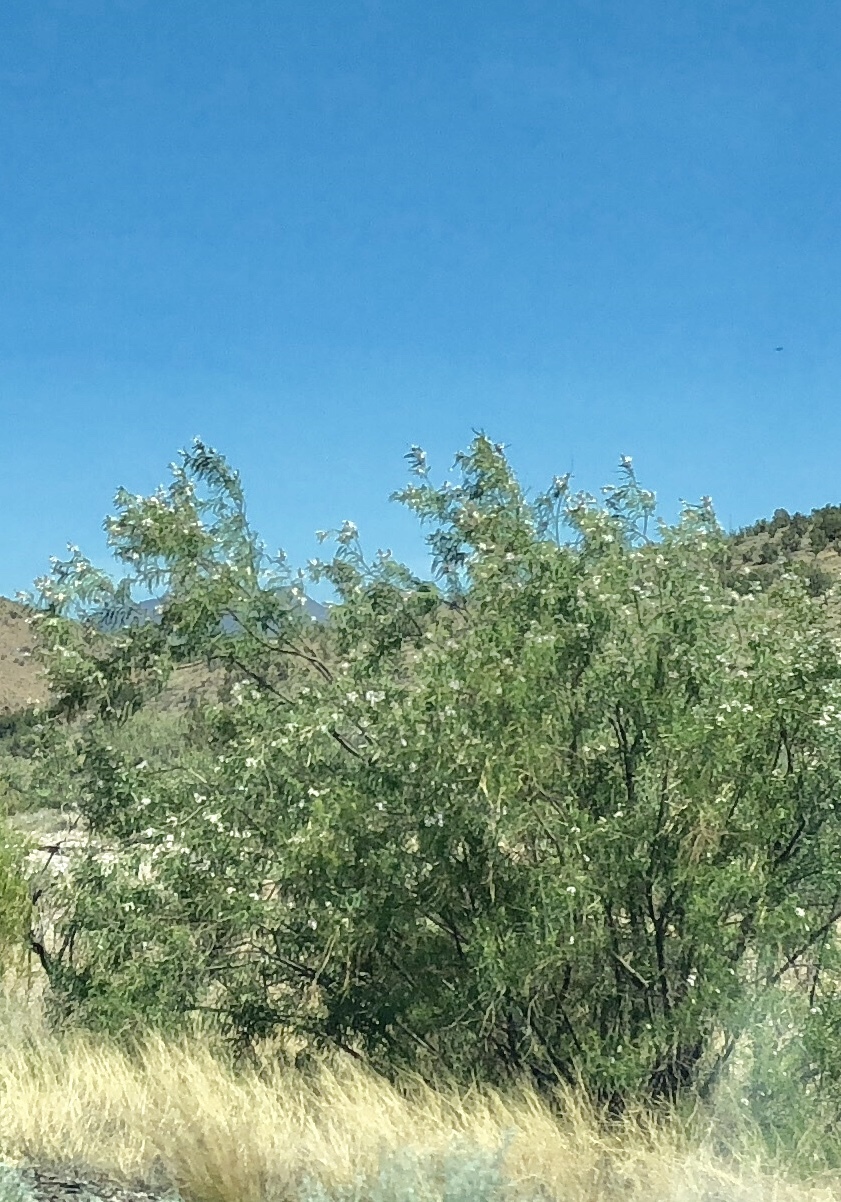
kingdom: Plantae
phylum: Tracheophyta
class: Magnoliopsida
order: Lamiales
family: Bignoniaceae
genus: Chilopsis
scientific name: Chilopsis linearis
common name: Desert-willow
